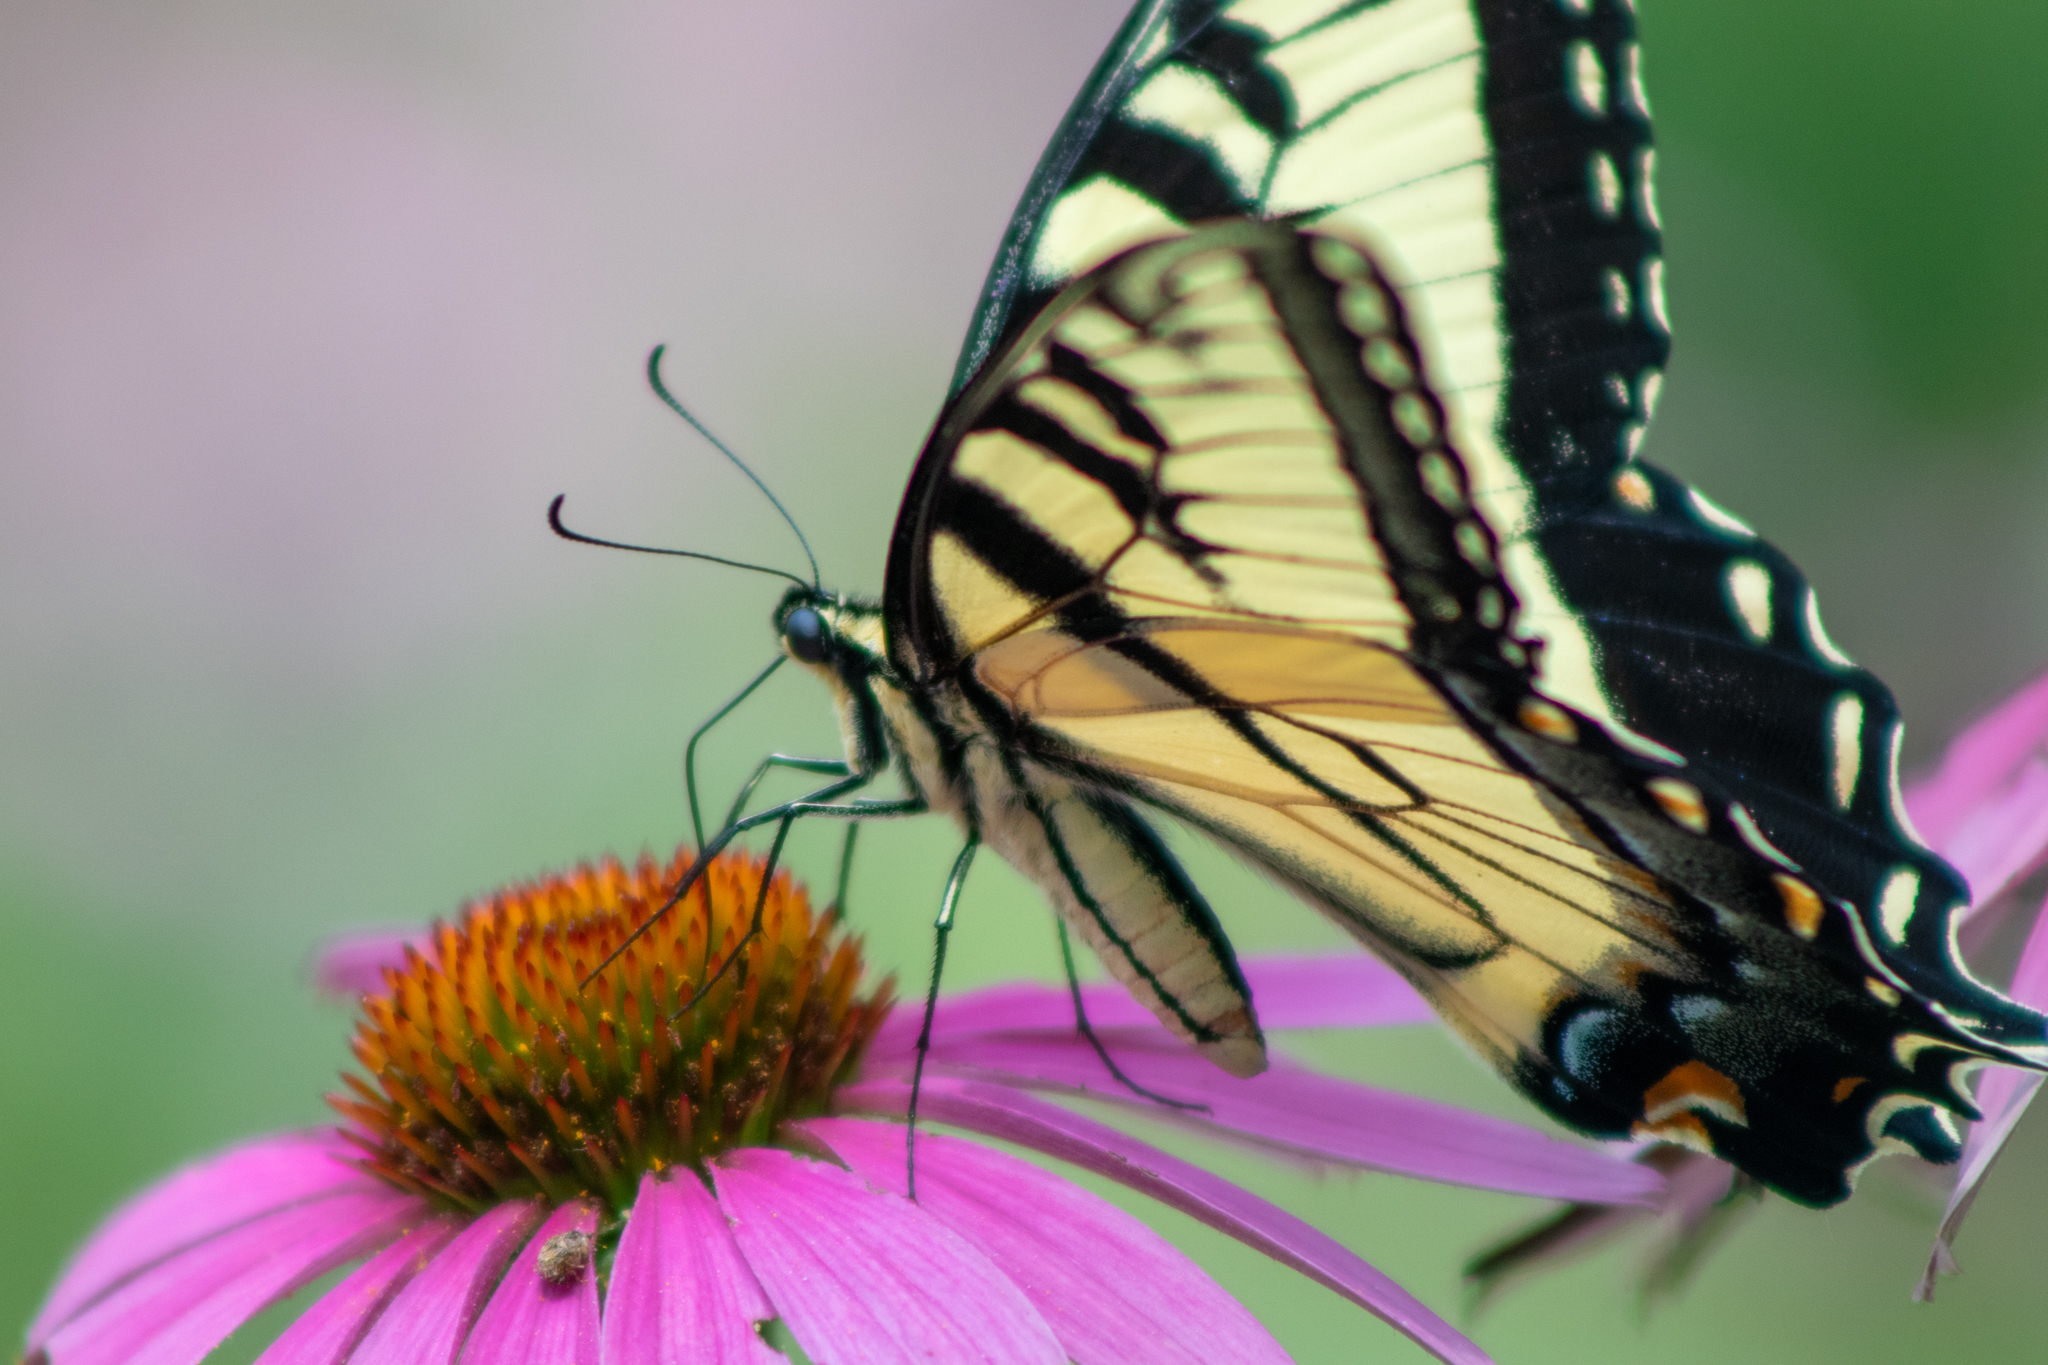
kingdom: Animalia
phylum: Arthropoda
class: Insecta
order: Lepidoptera
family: Papilionidae
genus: Papilio
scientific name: Papilio glaucus
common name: Tiger swallowtail
